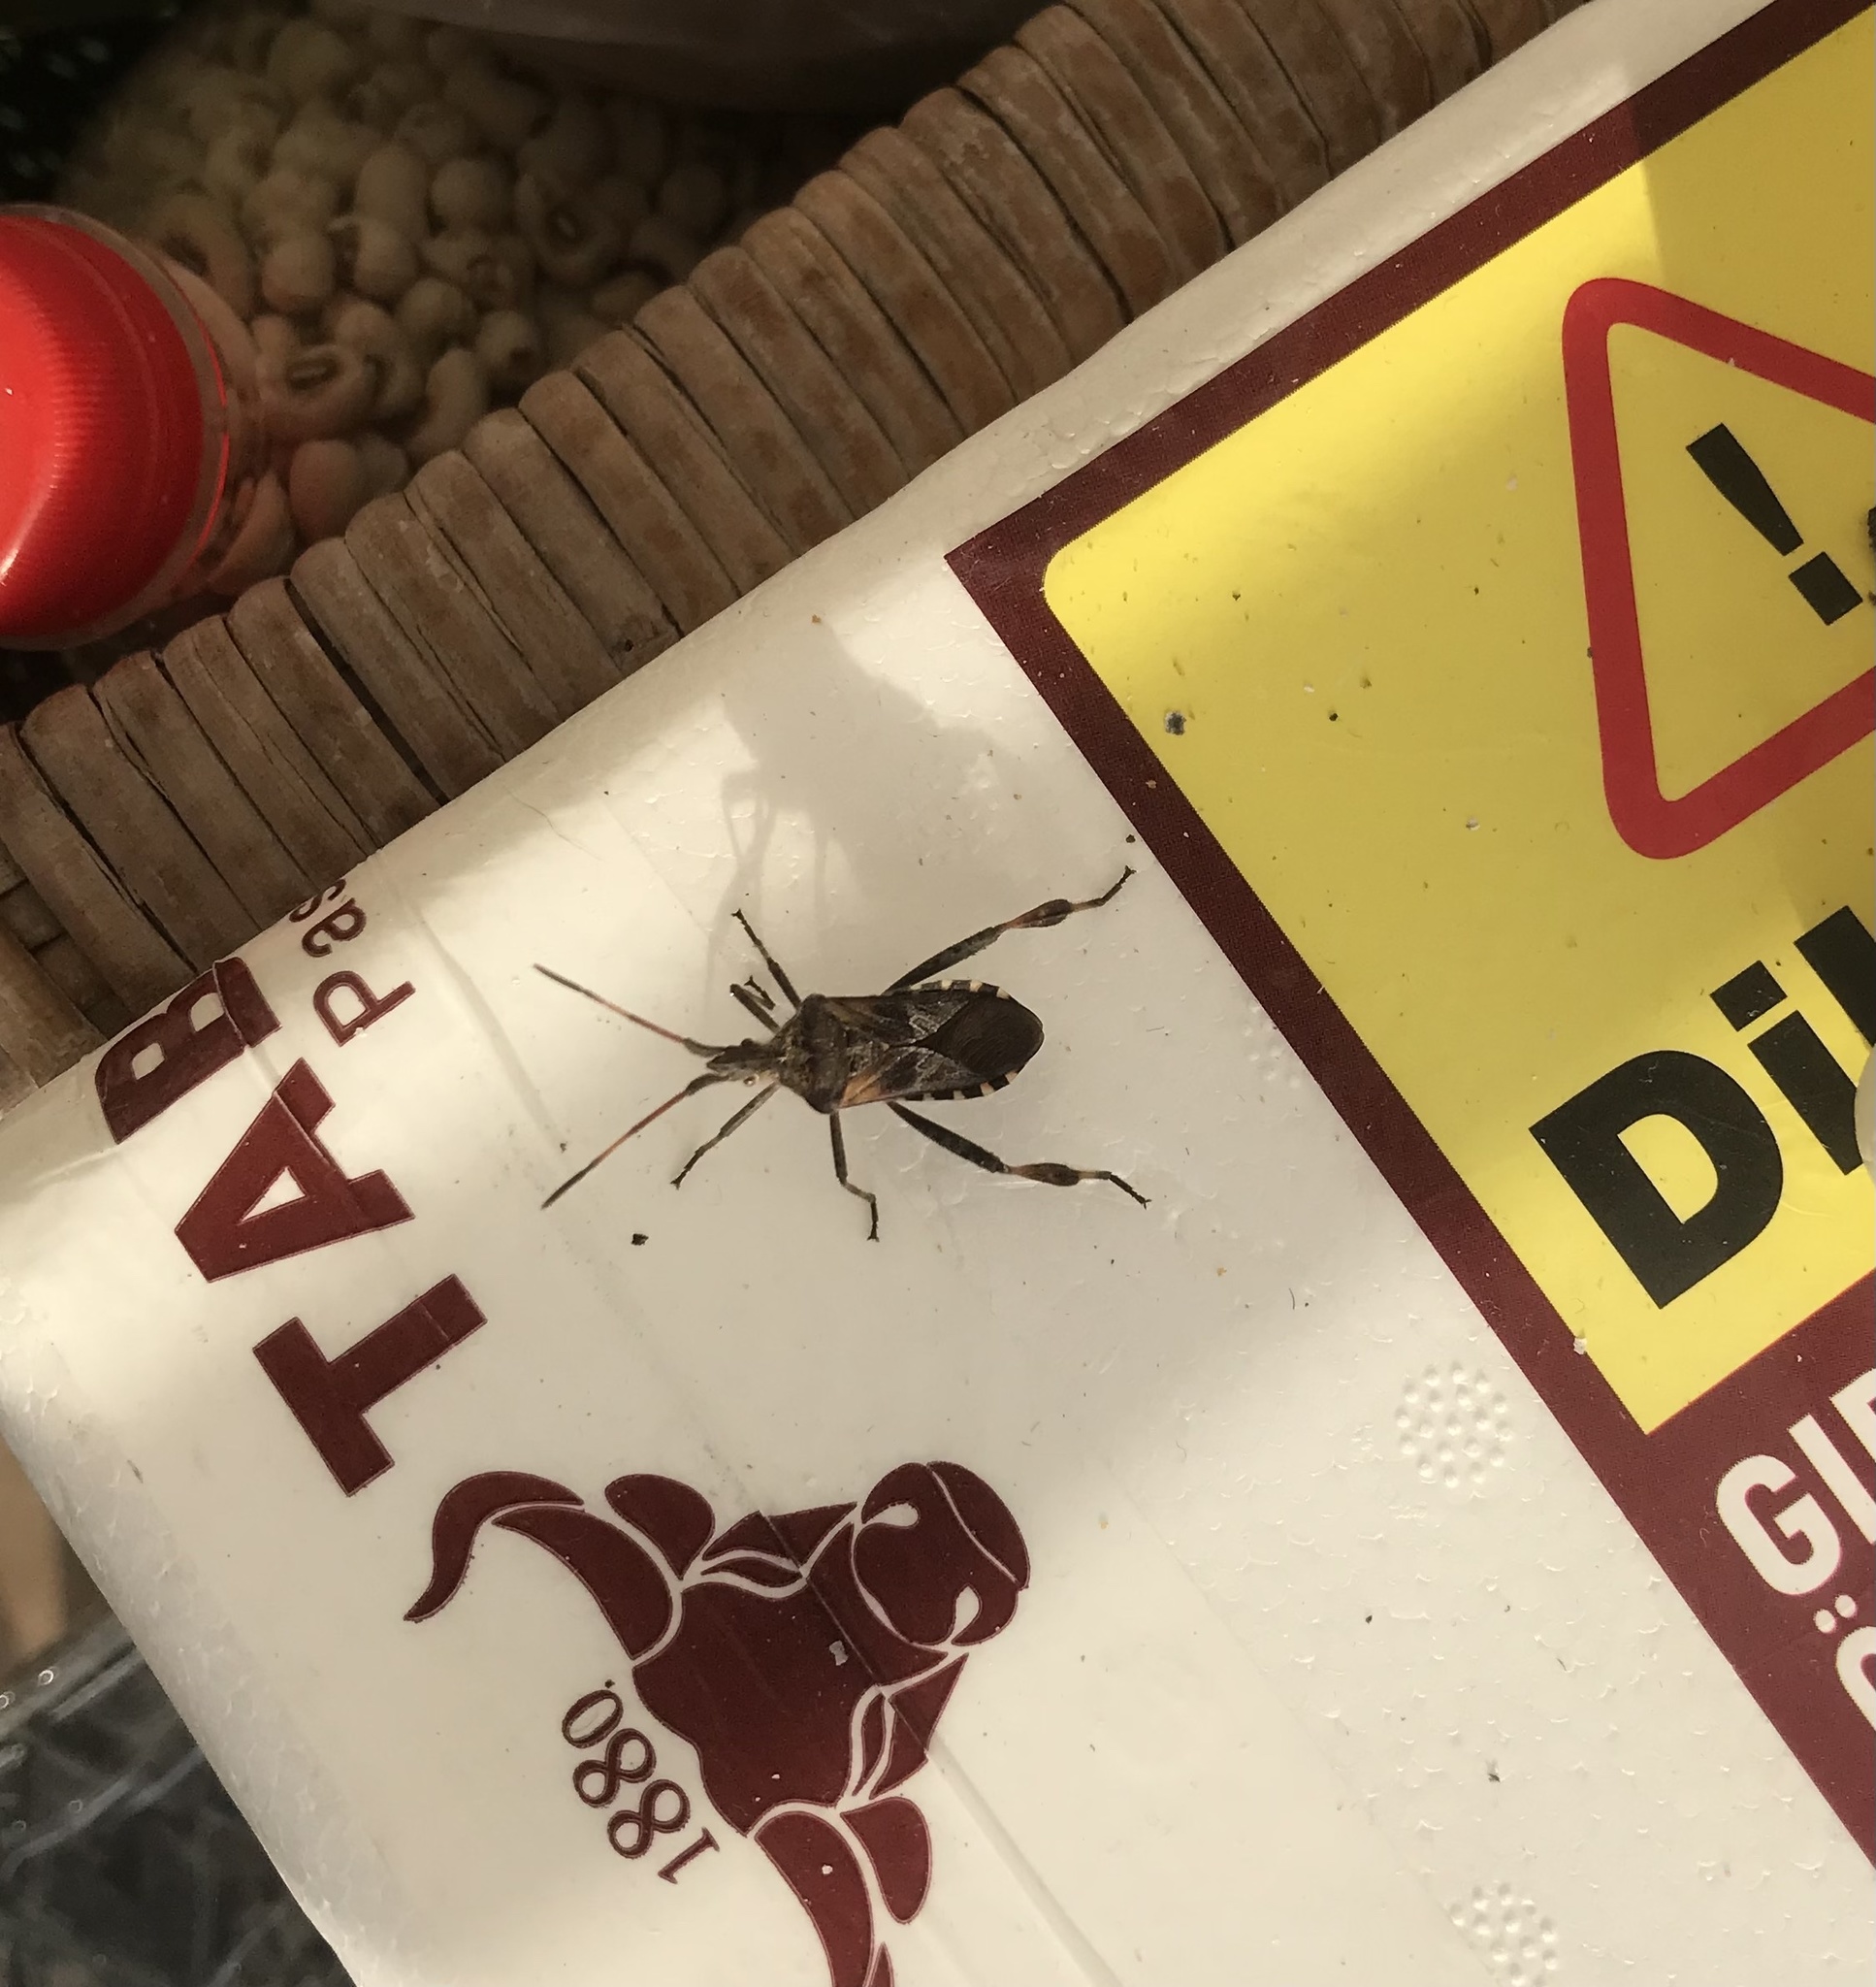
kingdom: Animalia
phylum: Arthropoda
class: Insecta
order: Hemiptera
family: Coreidae
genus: Leptoglossus
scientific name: Leptoglossus occidentalis
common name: Western conifer-seed bug
